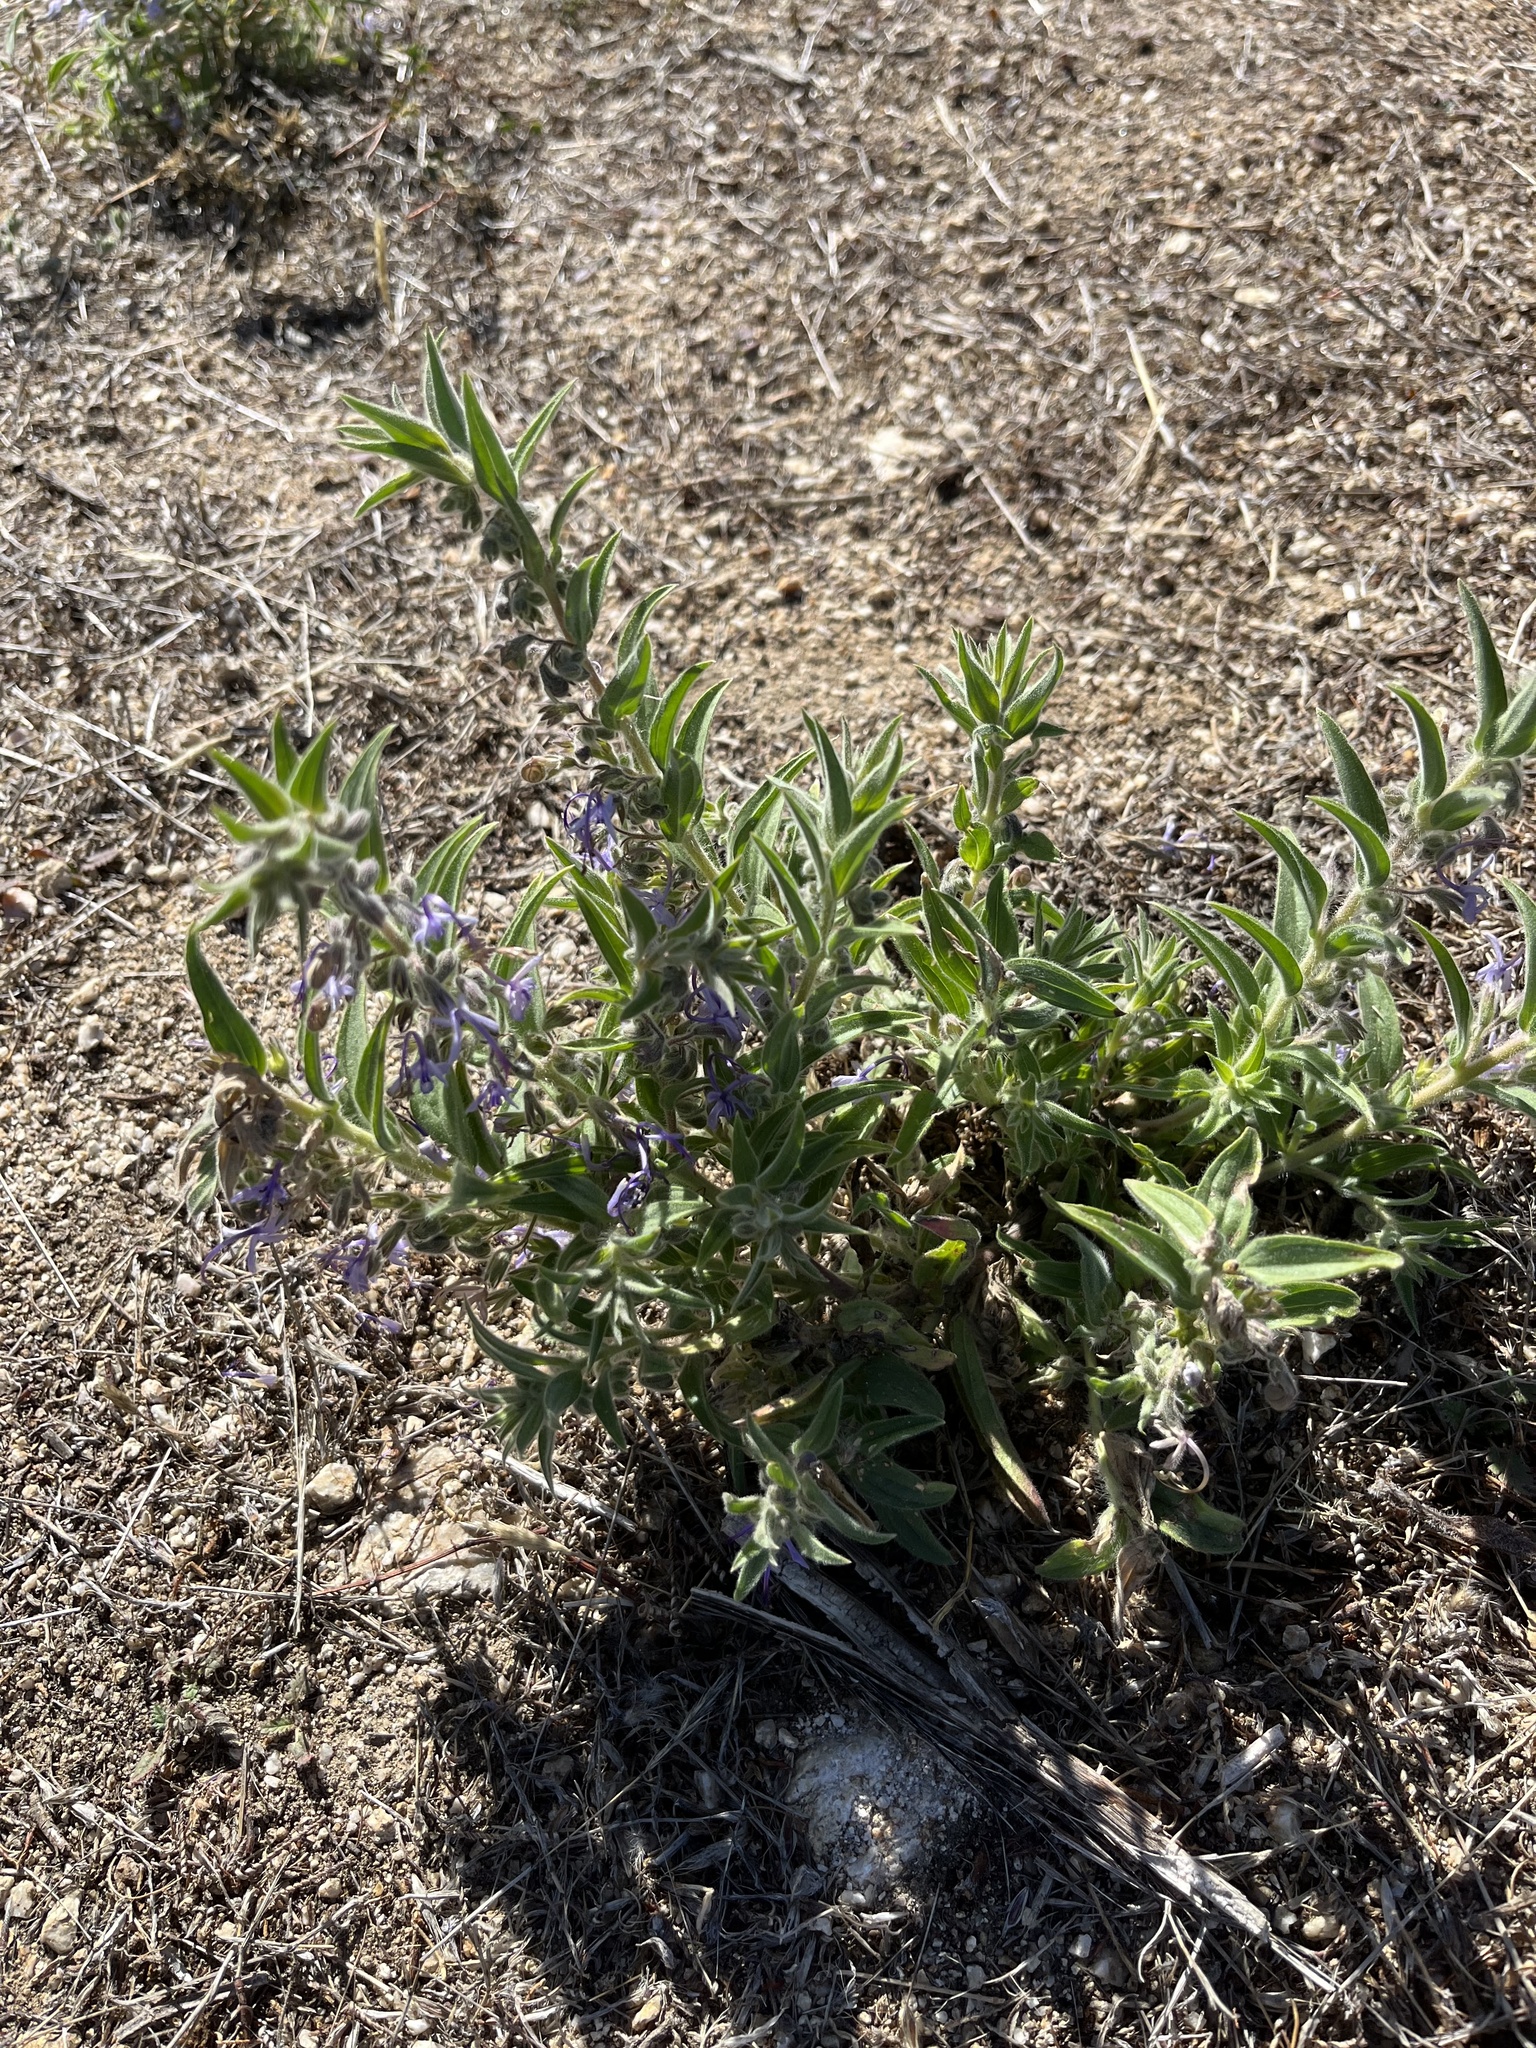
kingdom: Plantae
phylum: Tracheophyta
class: Magnoliopsida
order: Lamiales
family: Lamiaceae
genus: Trichostema
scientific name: Trichostema lanceolatum
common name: Vinegar-weed
